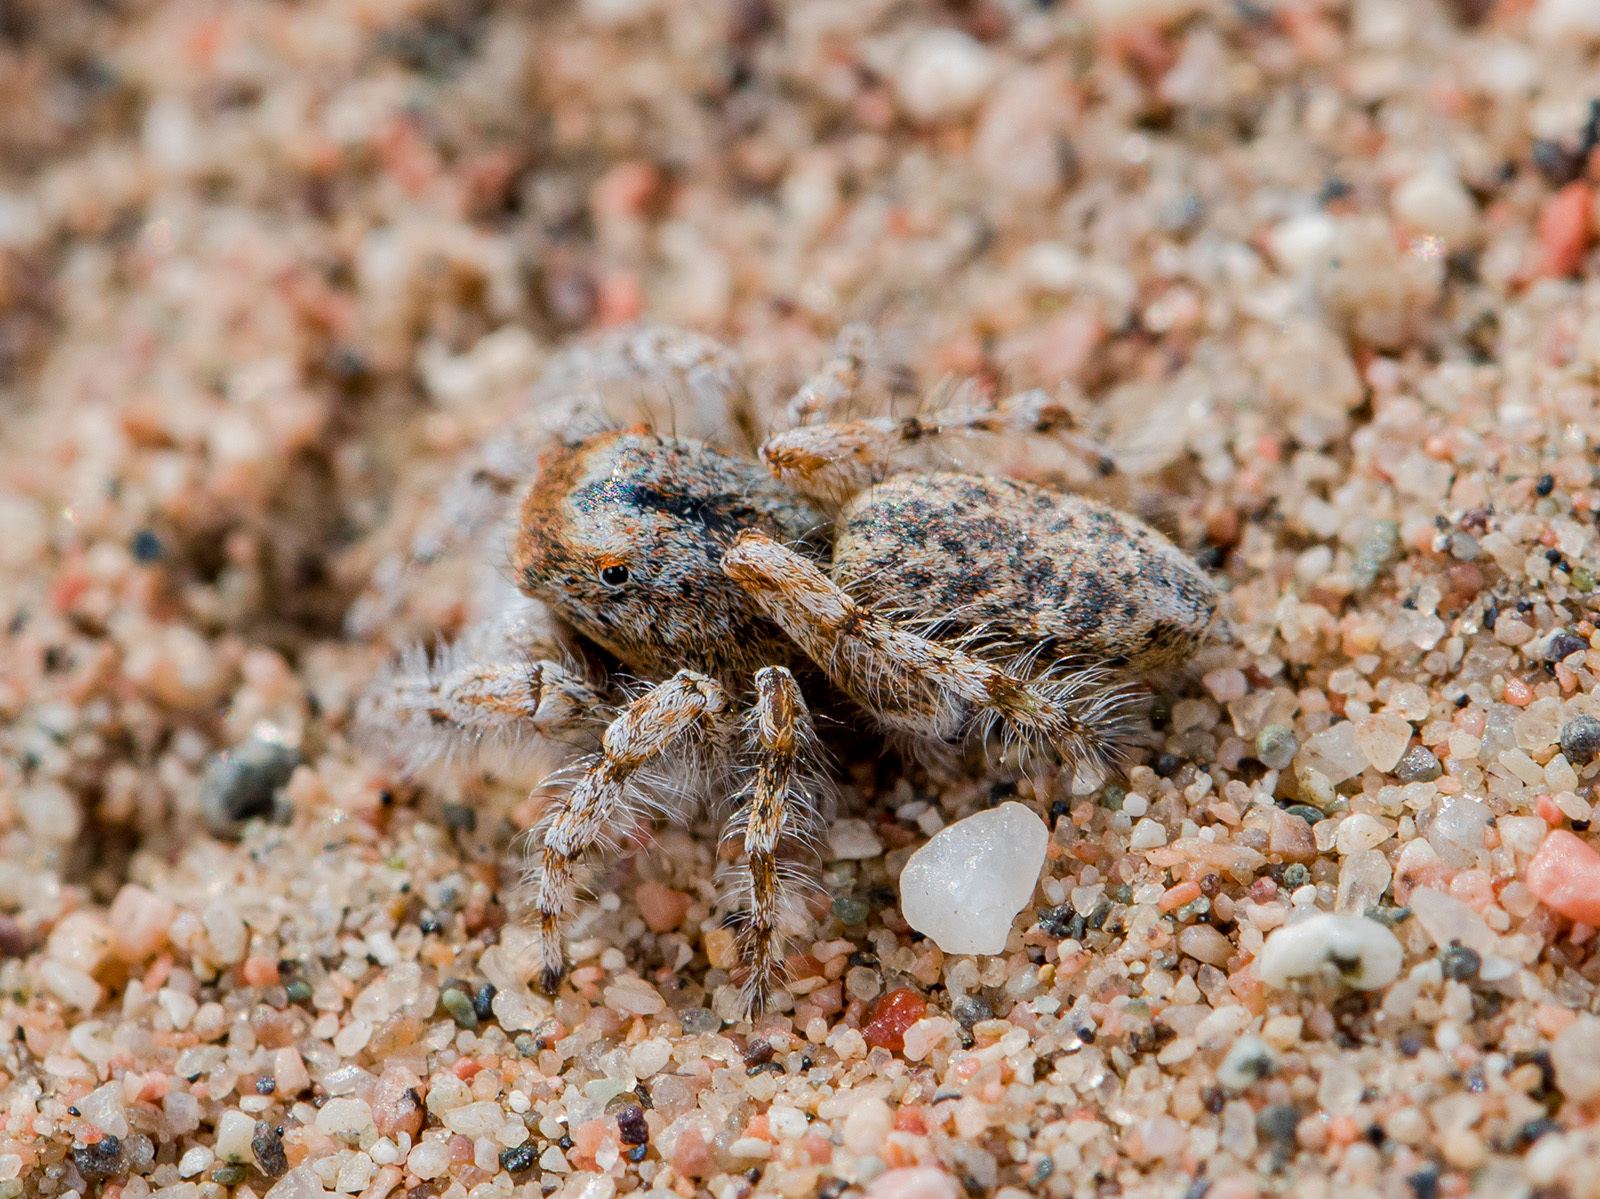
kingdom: Animalia
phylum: Arthropoda
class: Arachnida
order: Araneae
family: Salticidae
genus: Yllenus
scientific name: Yllenus uiguricus
